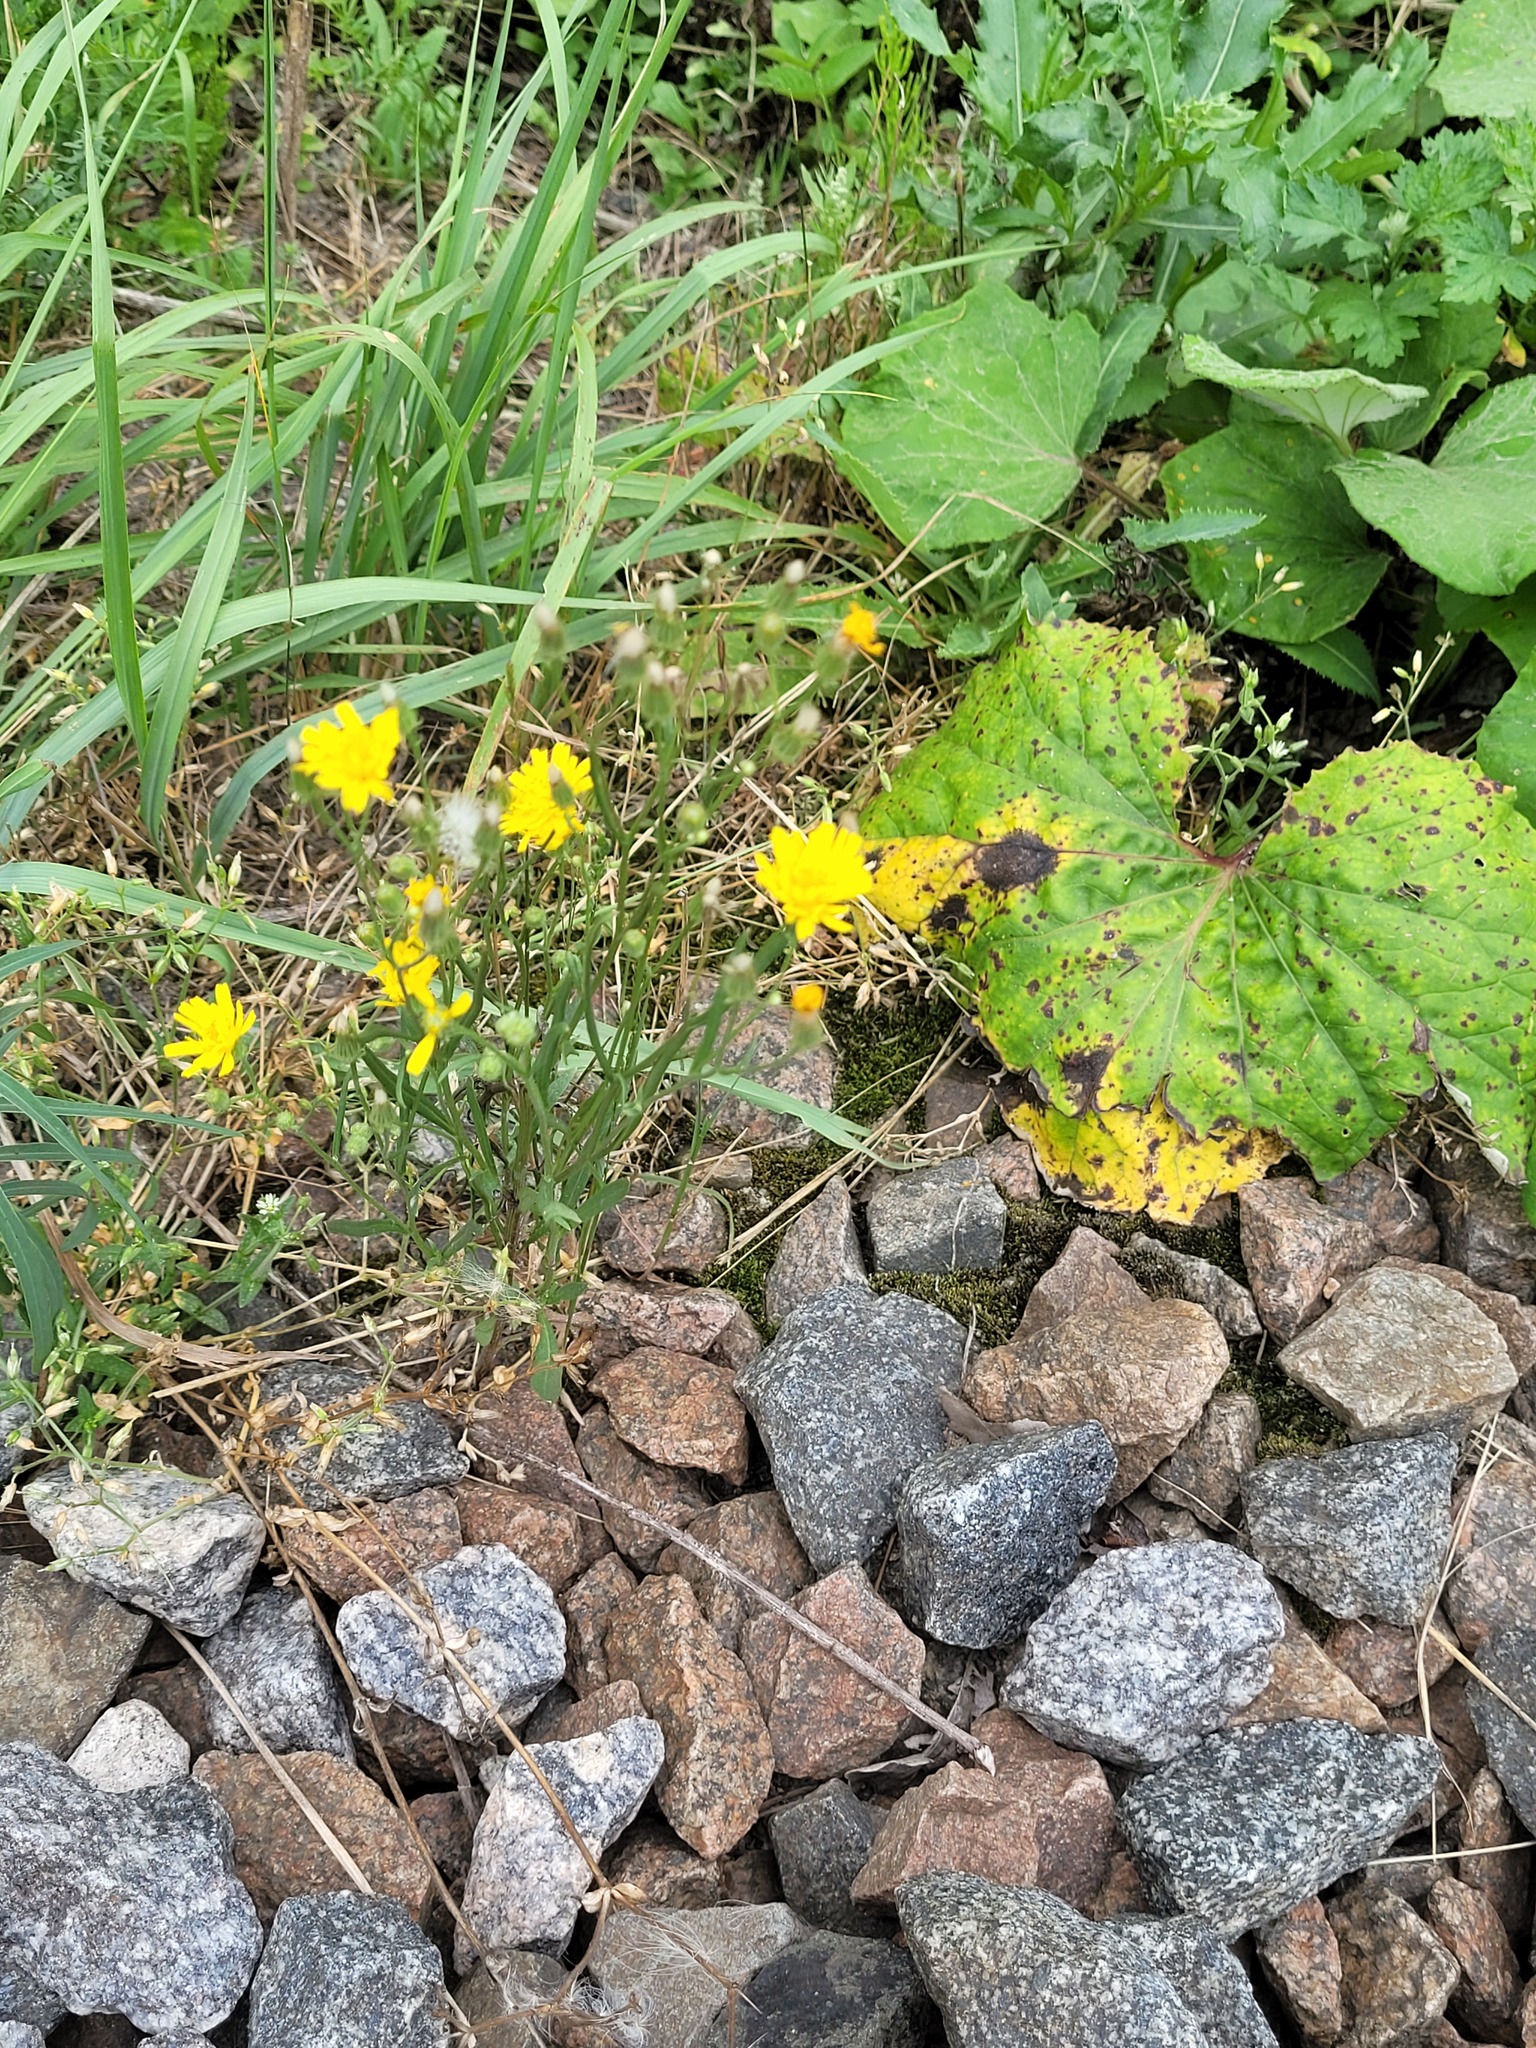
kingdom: Plantae
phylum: Tracheophyta
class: Magnoliopsida
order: Asterales
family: Asteraceae
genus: Crepis
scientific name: Crepis tectorum
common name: Narrow-leaved hawk's-beard
